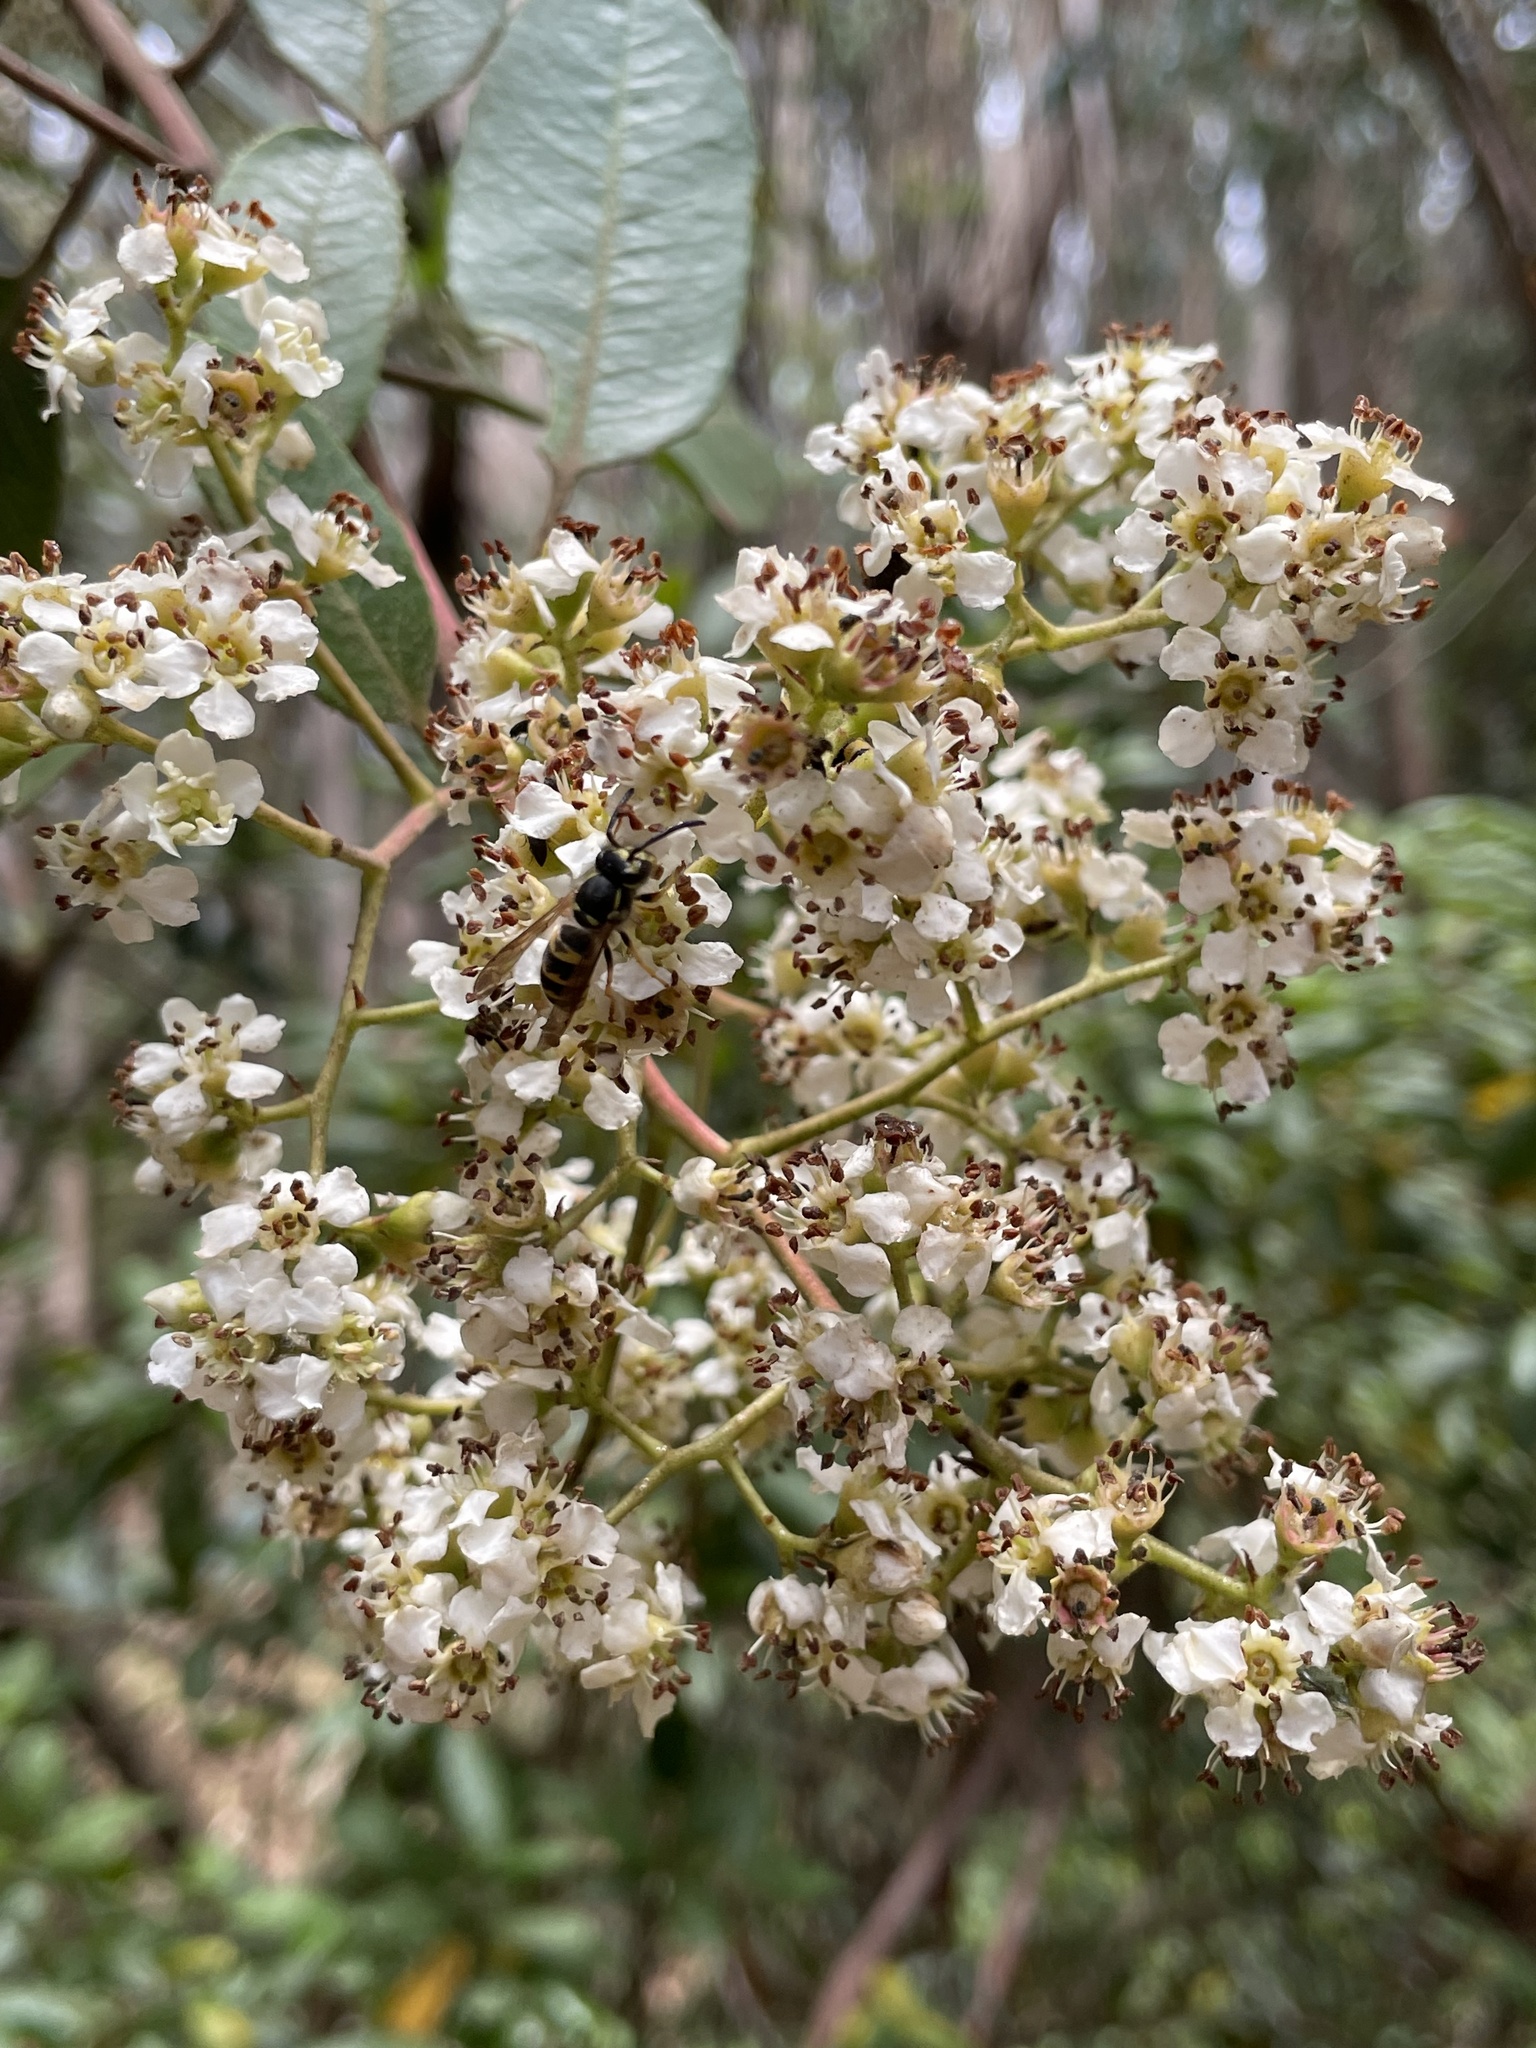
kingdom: Plantae
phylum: Tracheophyta
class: Magnoliopsida
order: Rosales
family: Rosaceae
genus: Heteromeles
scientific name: Heteromeles arbutifolia
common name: California-holly
